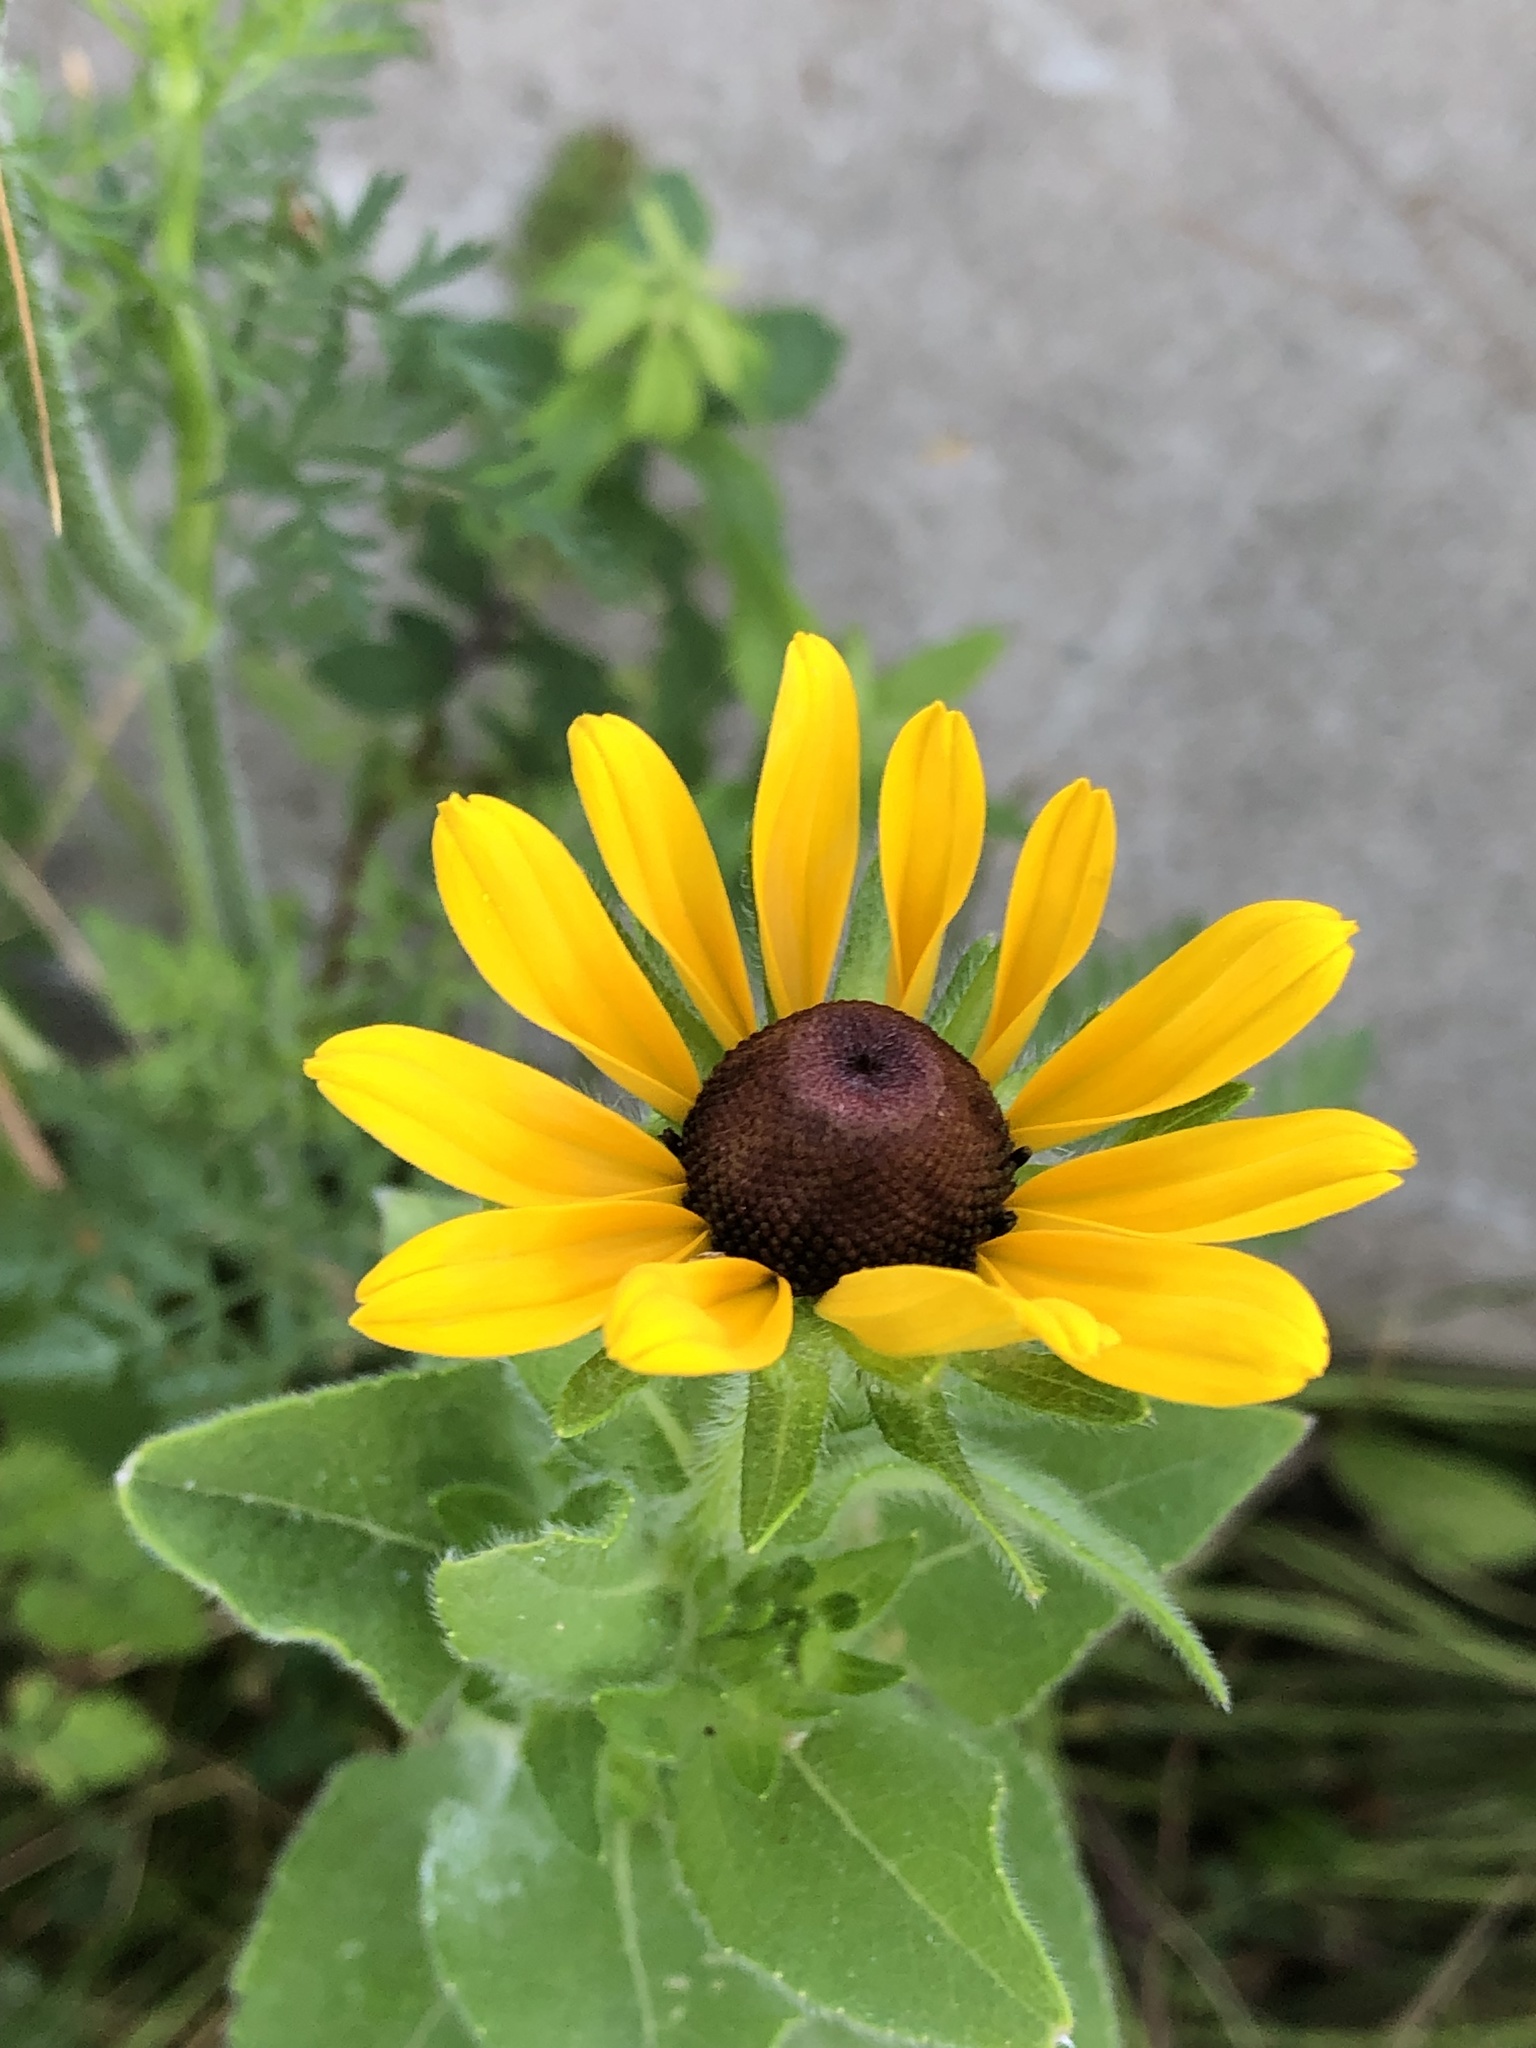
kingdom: Plantae
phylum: Tracheophyta
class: Magnoliopsida
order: Asterales
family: Asteraceae
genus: Rudbeckia
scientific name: Rudbeckia hirta
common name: Black-eyed-susan
